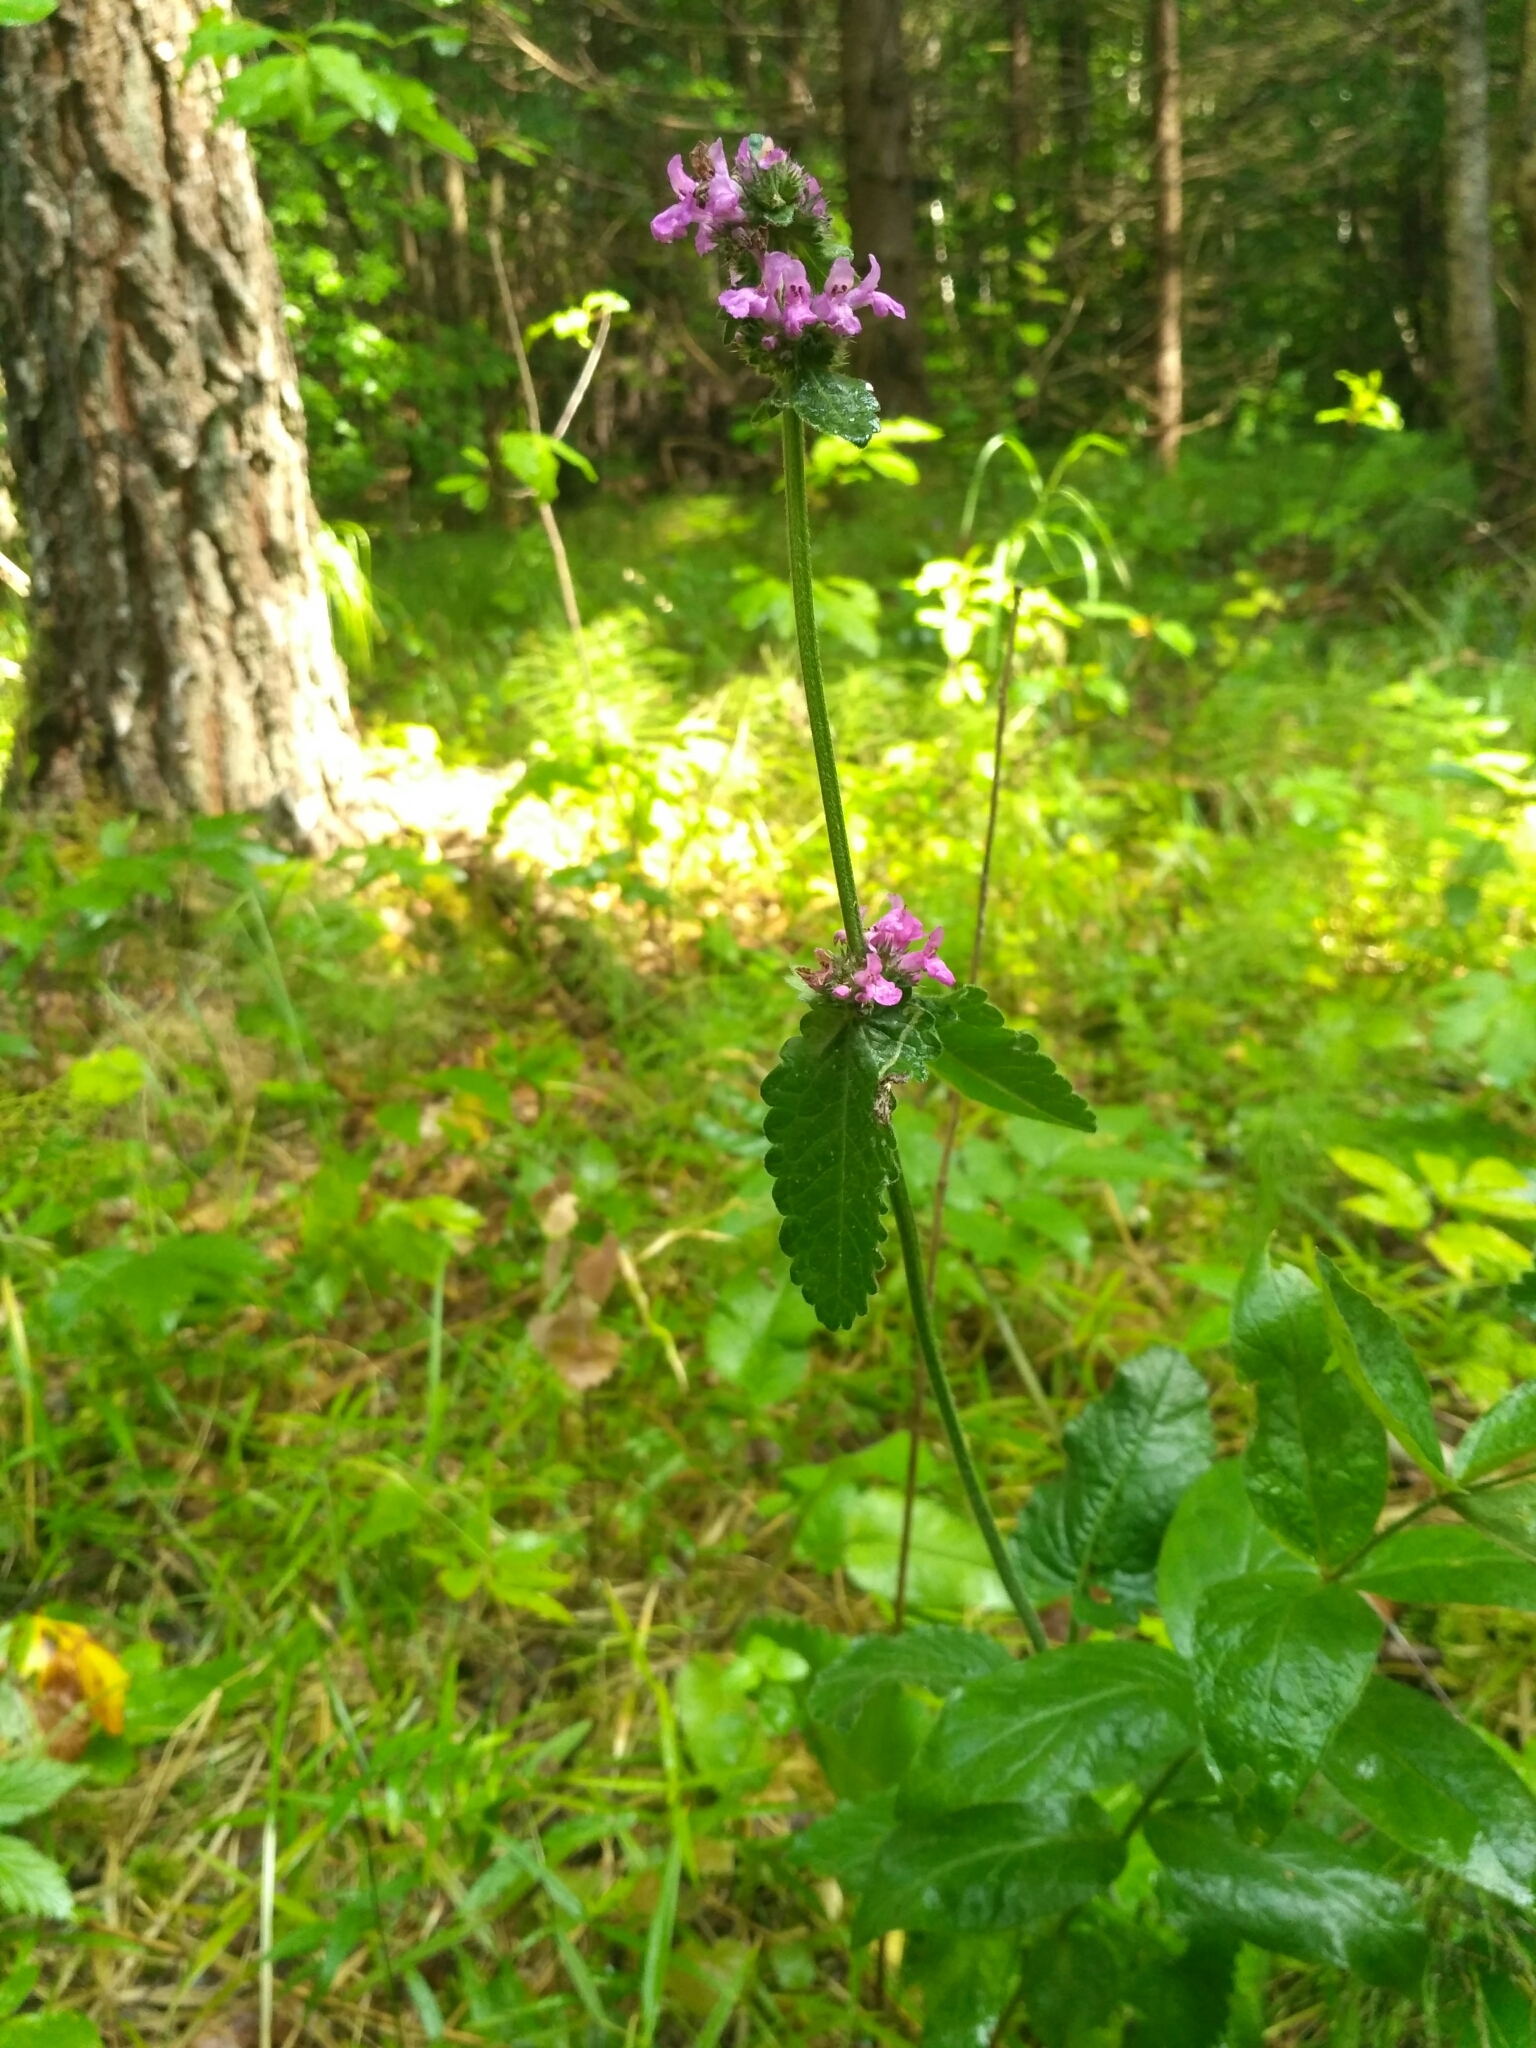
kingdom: Plantae
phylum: Tracheophyta
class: Magnoliopsida
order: Lamiales
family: Lamiaceae
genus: Betonica
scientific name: Betonica officinalis
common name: Bishop's-wort
